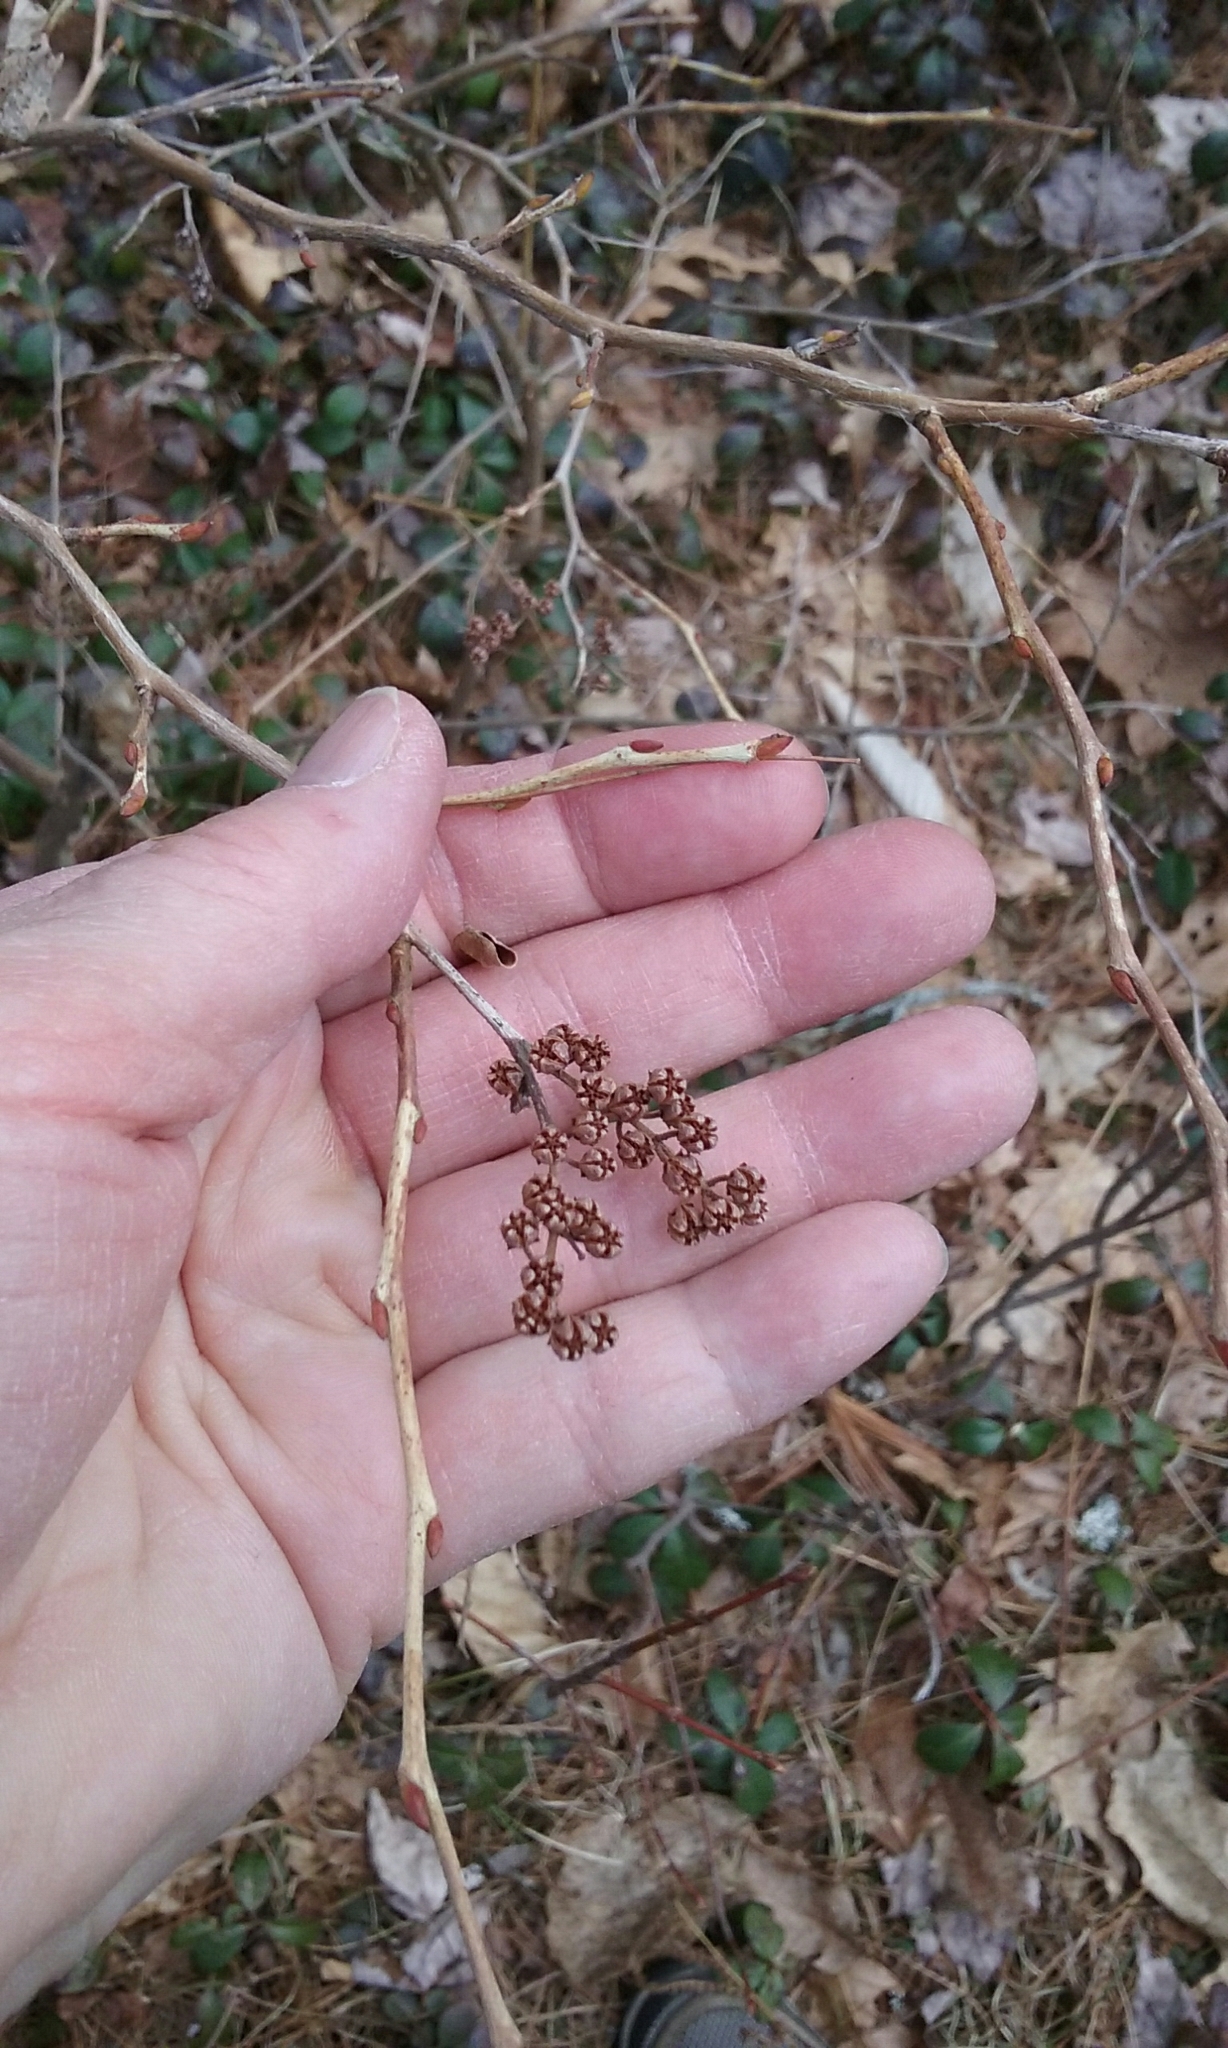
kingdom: Plantae
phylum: Tracheophyta
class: Magnoliopsida
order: Ericales
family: Ericaceae
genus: Lyonia
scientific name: Lyonia ligustrina
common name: Maleberry
